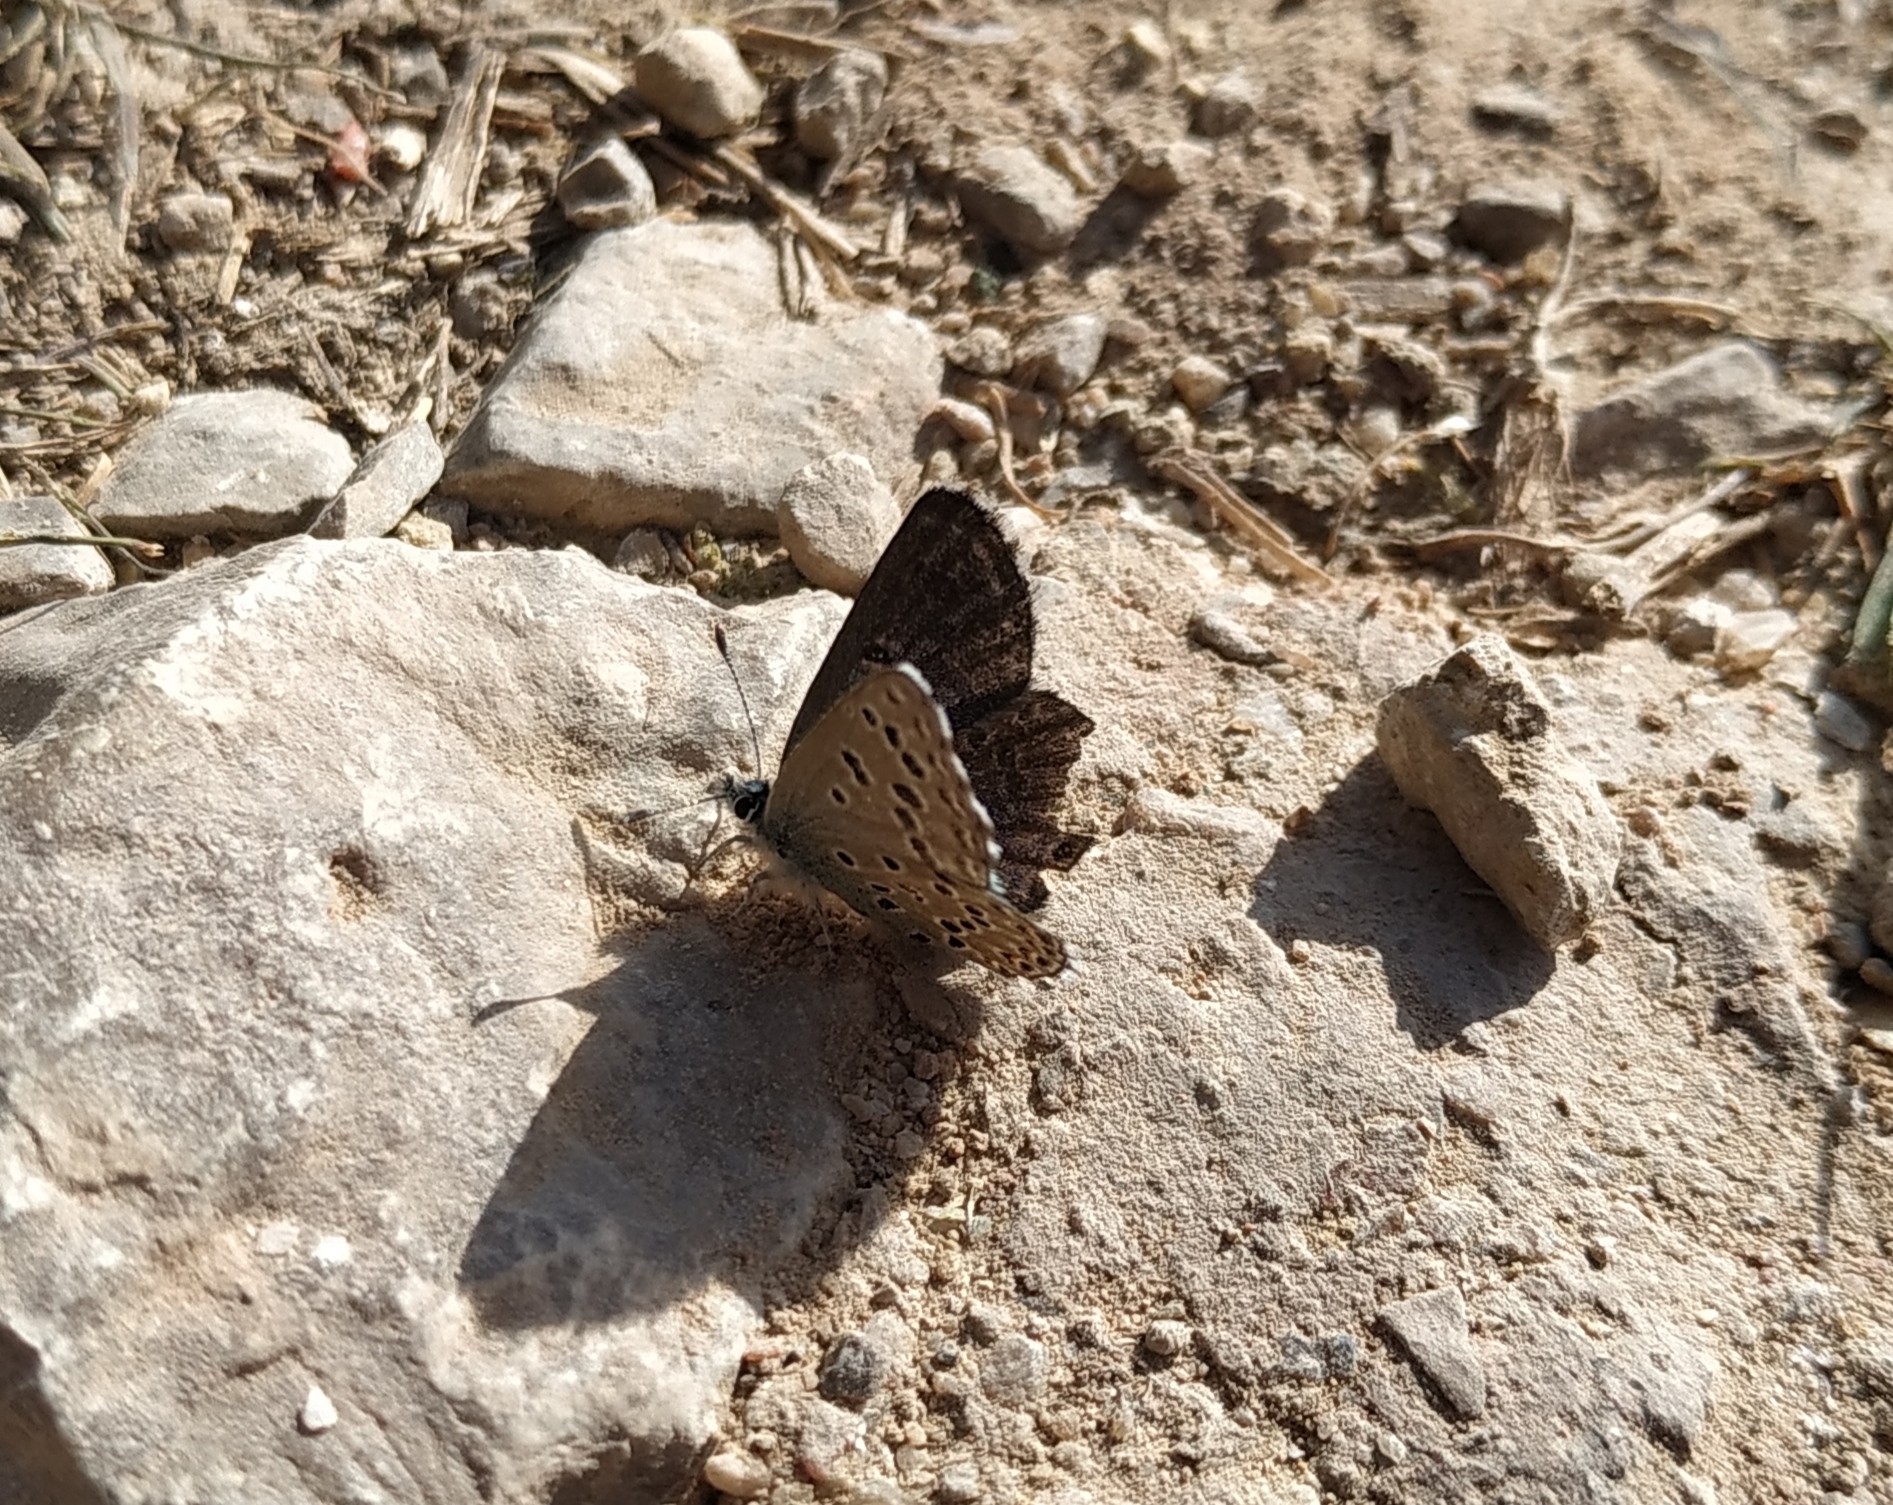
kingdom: Animalia
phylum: Arthropoda
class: Insecta
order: Lepidoptera
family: Lycaenidae
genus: Pseudophilotes
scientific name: Pseudophilotes baton
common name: Baton blue
